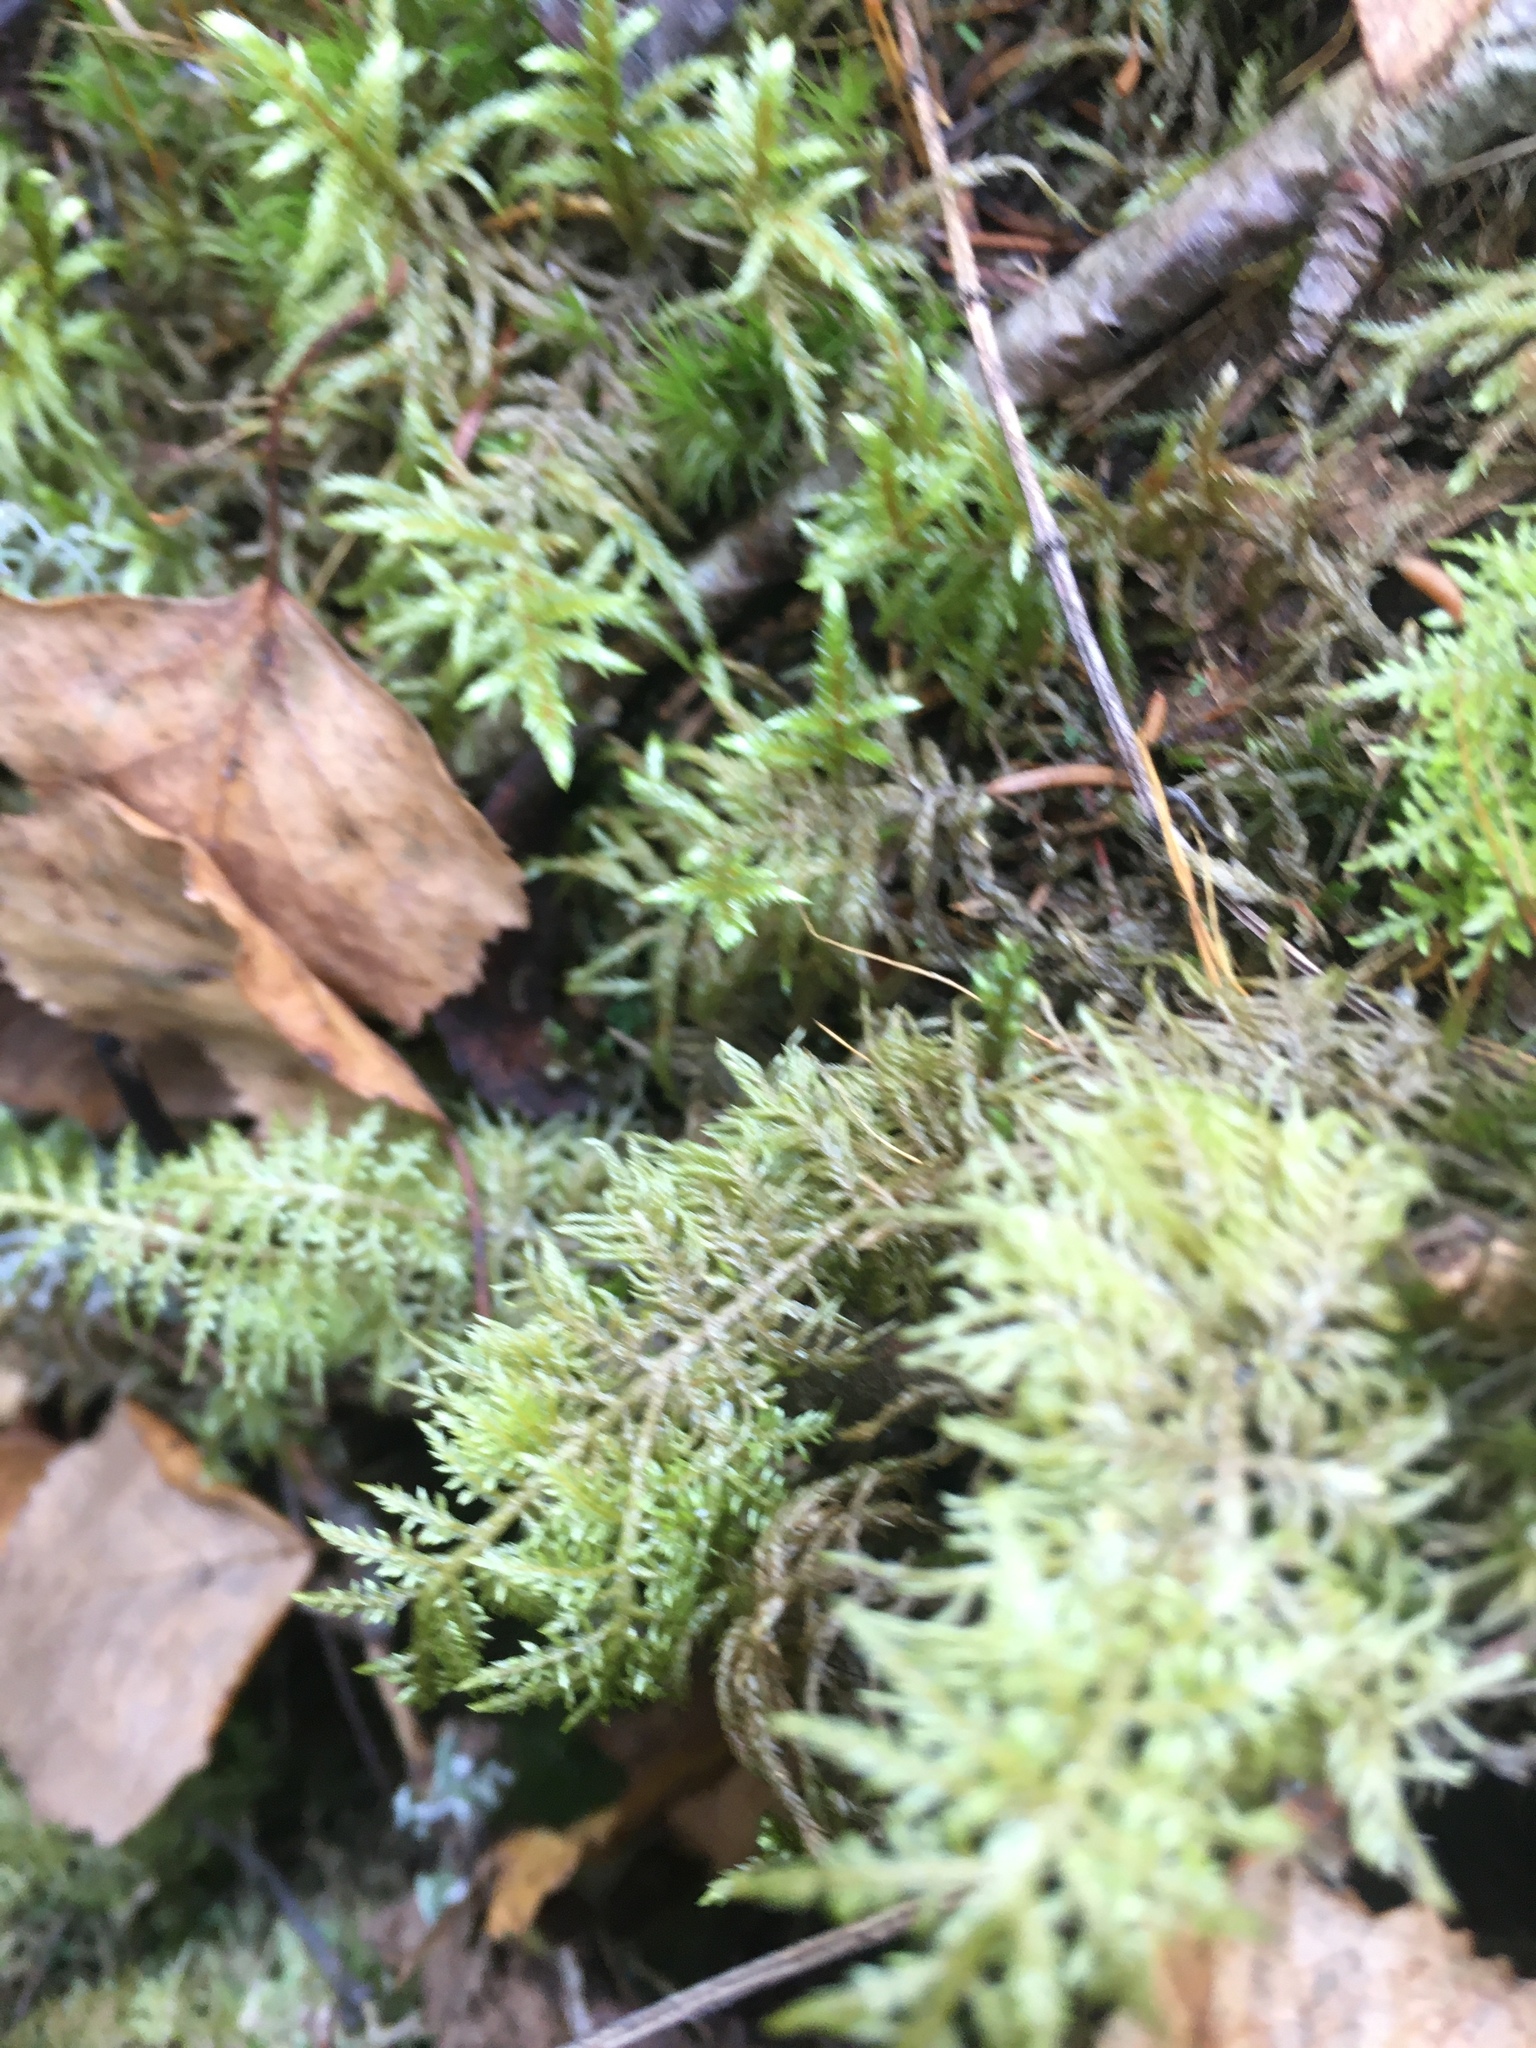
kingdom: Plantae
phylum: Bryophyta
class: Bryopsida
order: Hypnales
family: Hylocomiaceae
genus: Hylocomium
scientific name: Hylocomium splendens
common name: Stairstep moss
